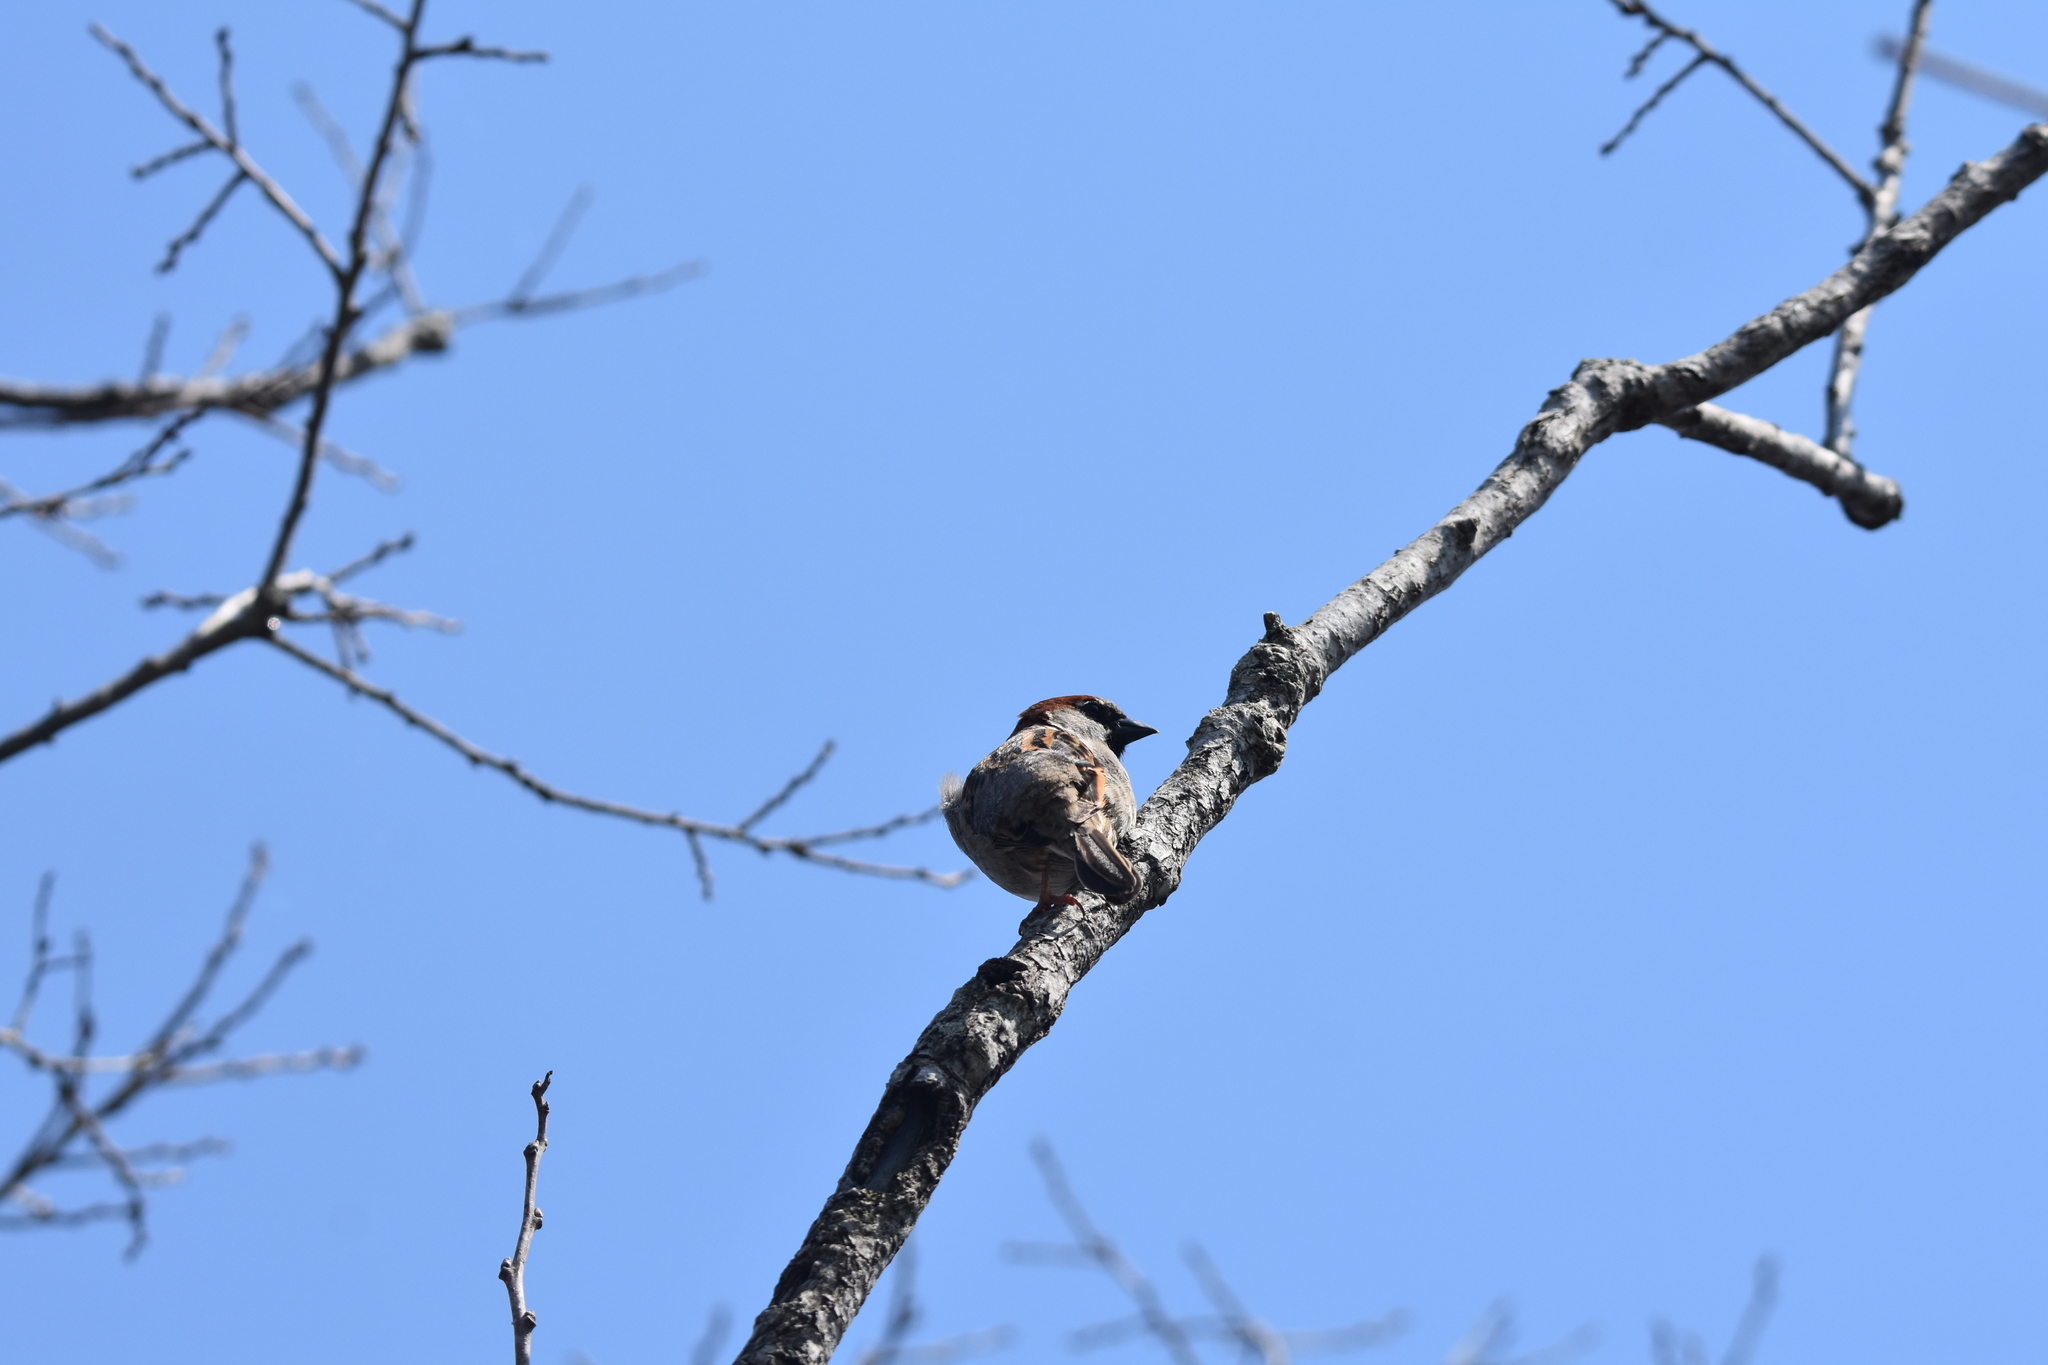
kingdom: Animalia
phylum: Chordata
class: Aves
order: Passeriformes
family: Passeridae
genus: Passer
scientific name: Passer domesticus
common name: House sparrow
